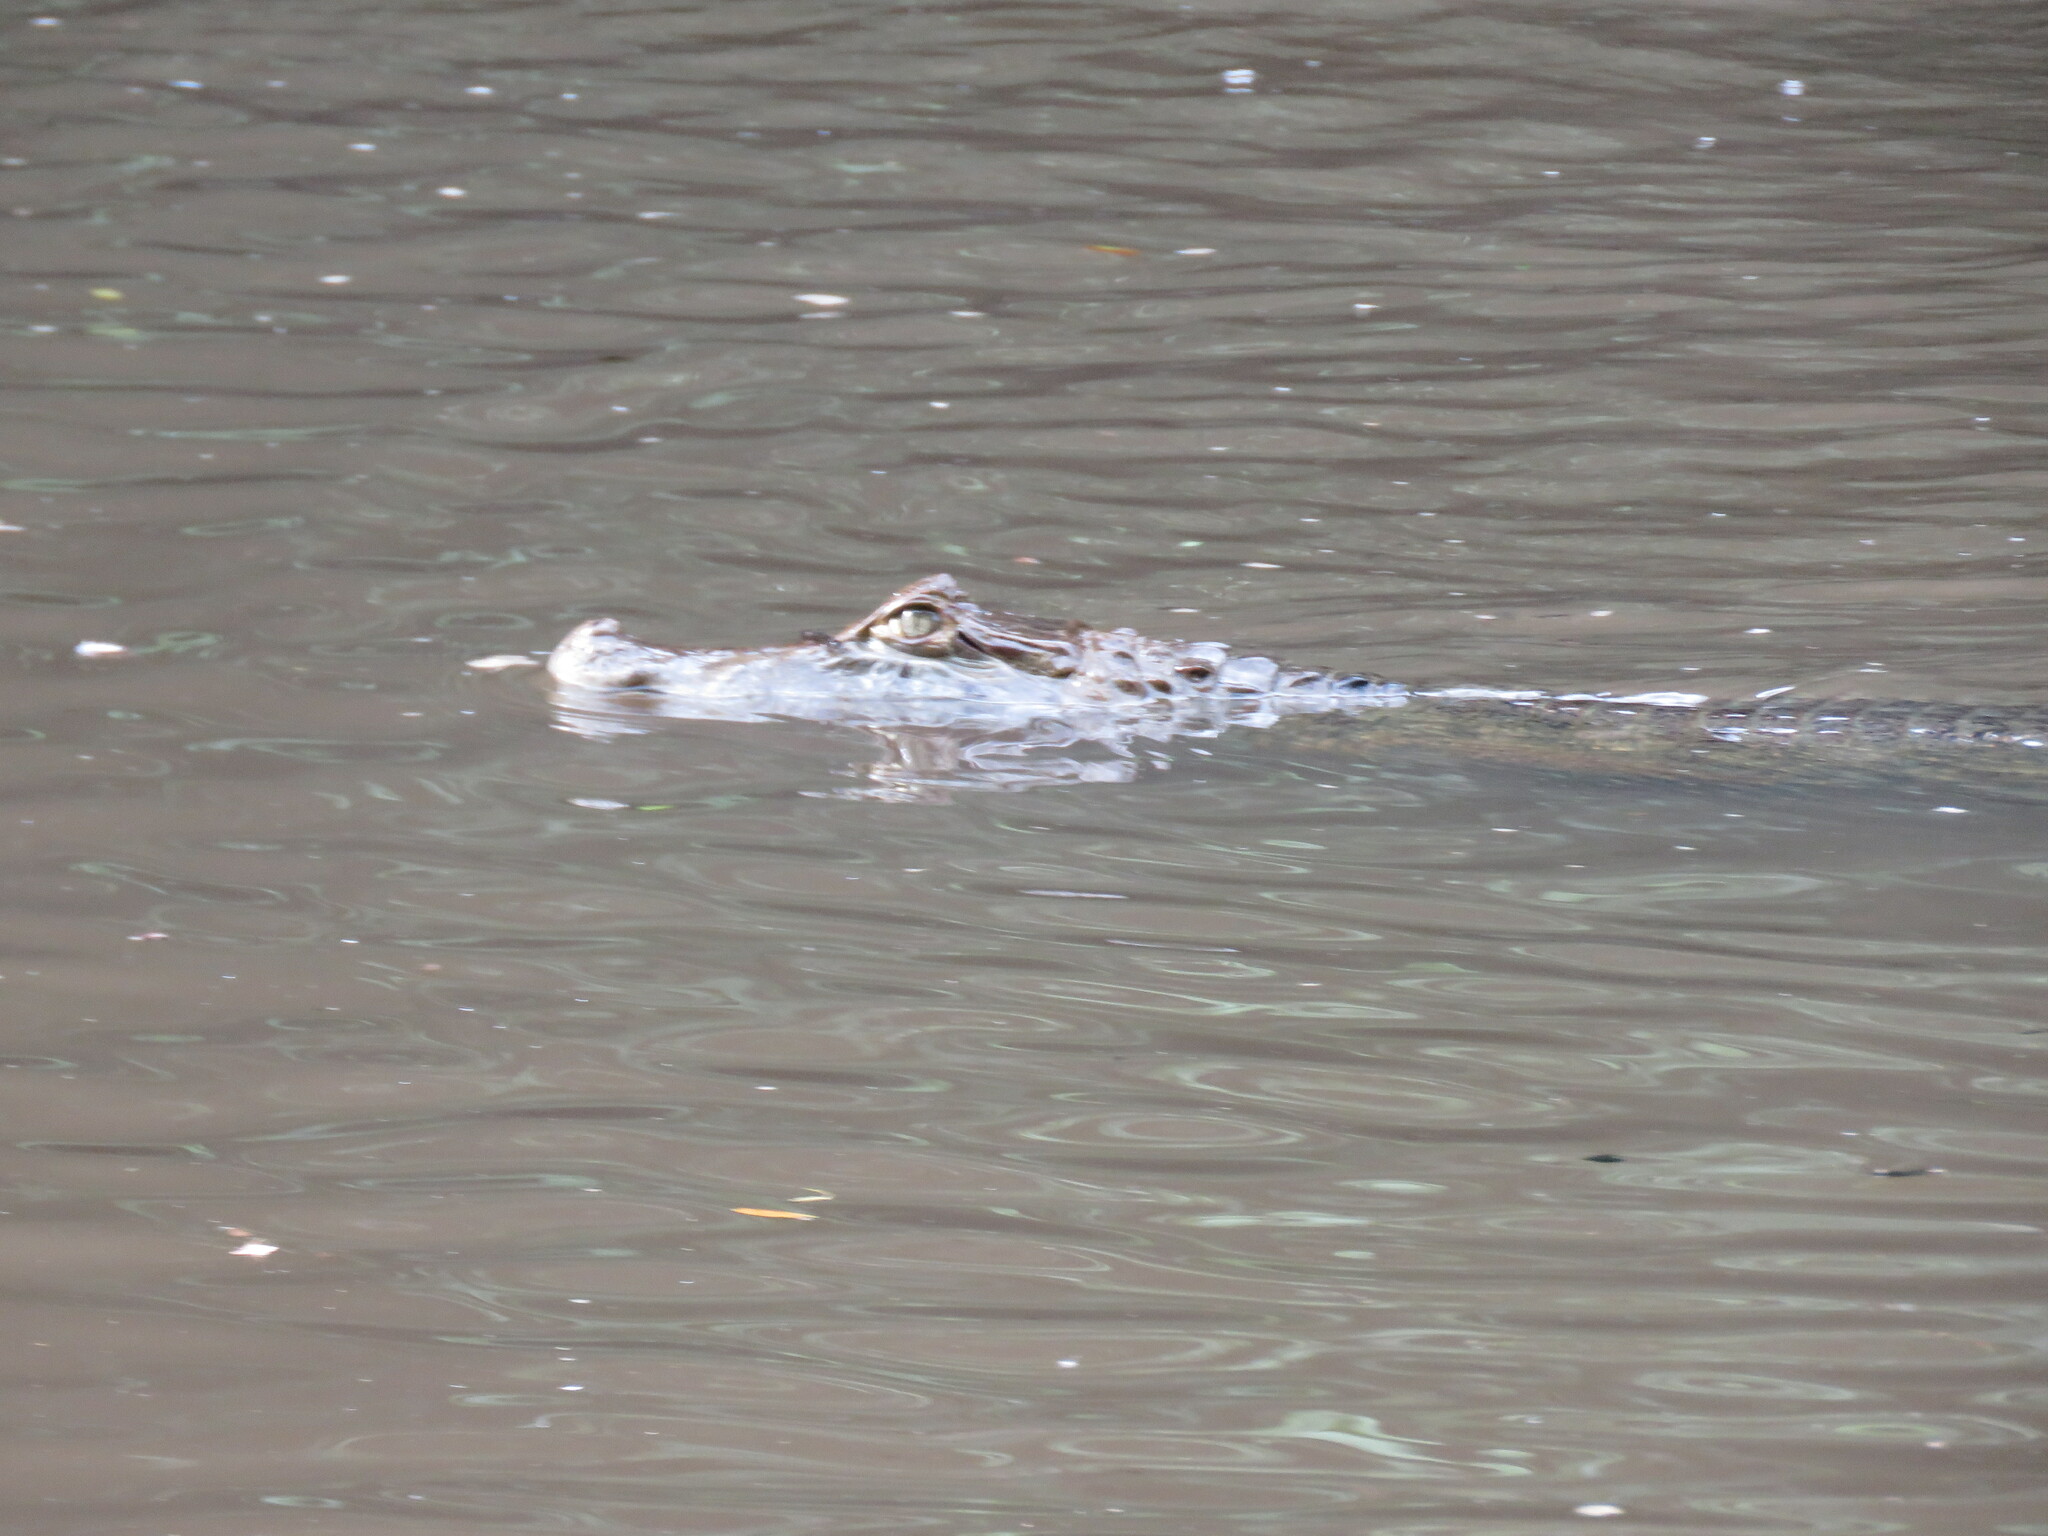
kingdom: Animalia
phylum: Chordata
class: Crocodylia
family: Alligatoridae
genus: Caiman
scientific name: Caiman yacare
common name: Yacare caiman
